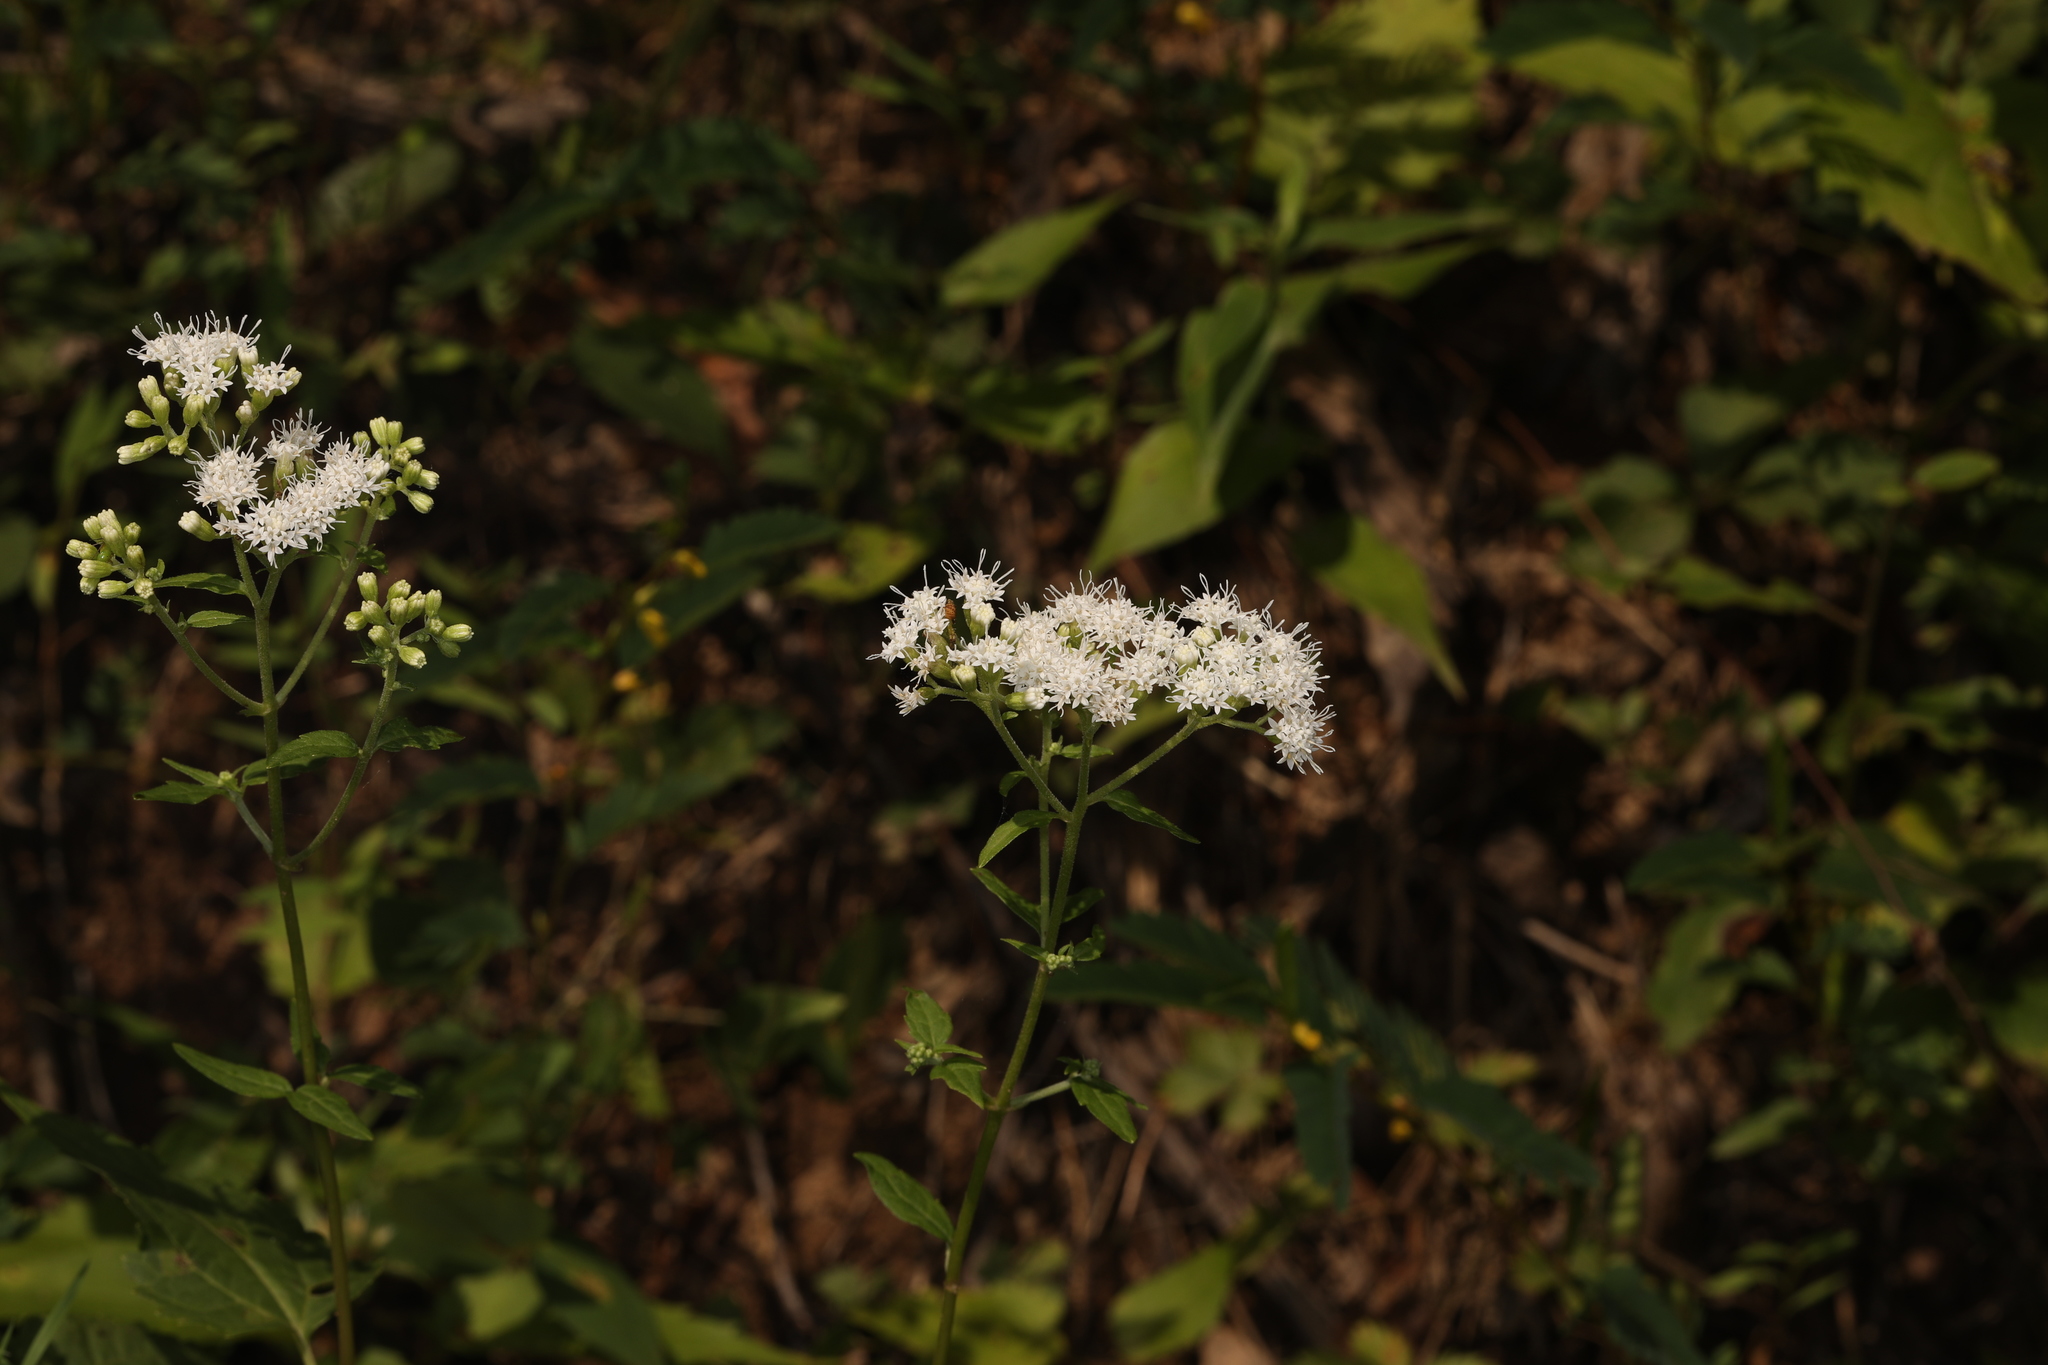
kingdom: Plantae
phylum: Tracheophyta
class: Magnoliopsida
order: Asterales
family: Asteraceae
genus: Ageratina
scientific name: Ageratina altissima
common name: White snakeroot
